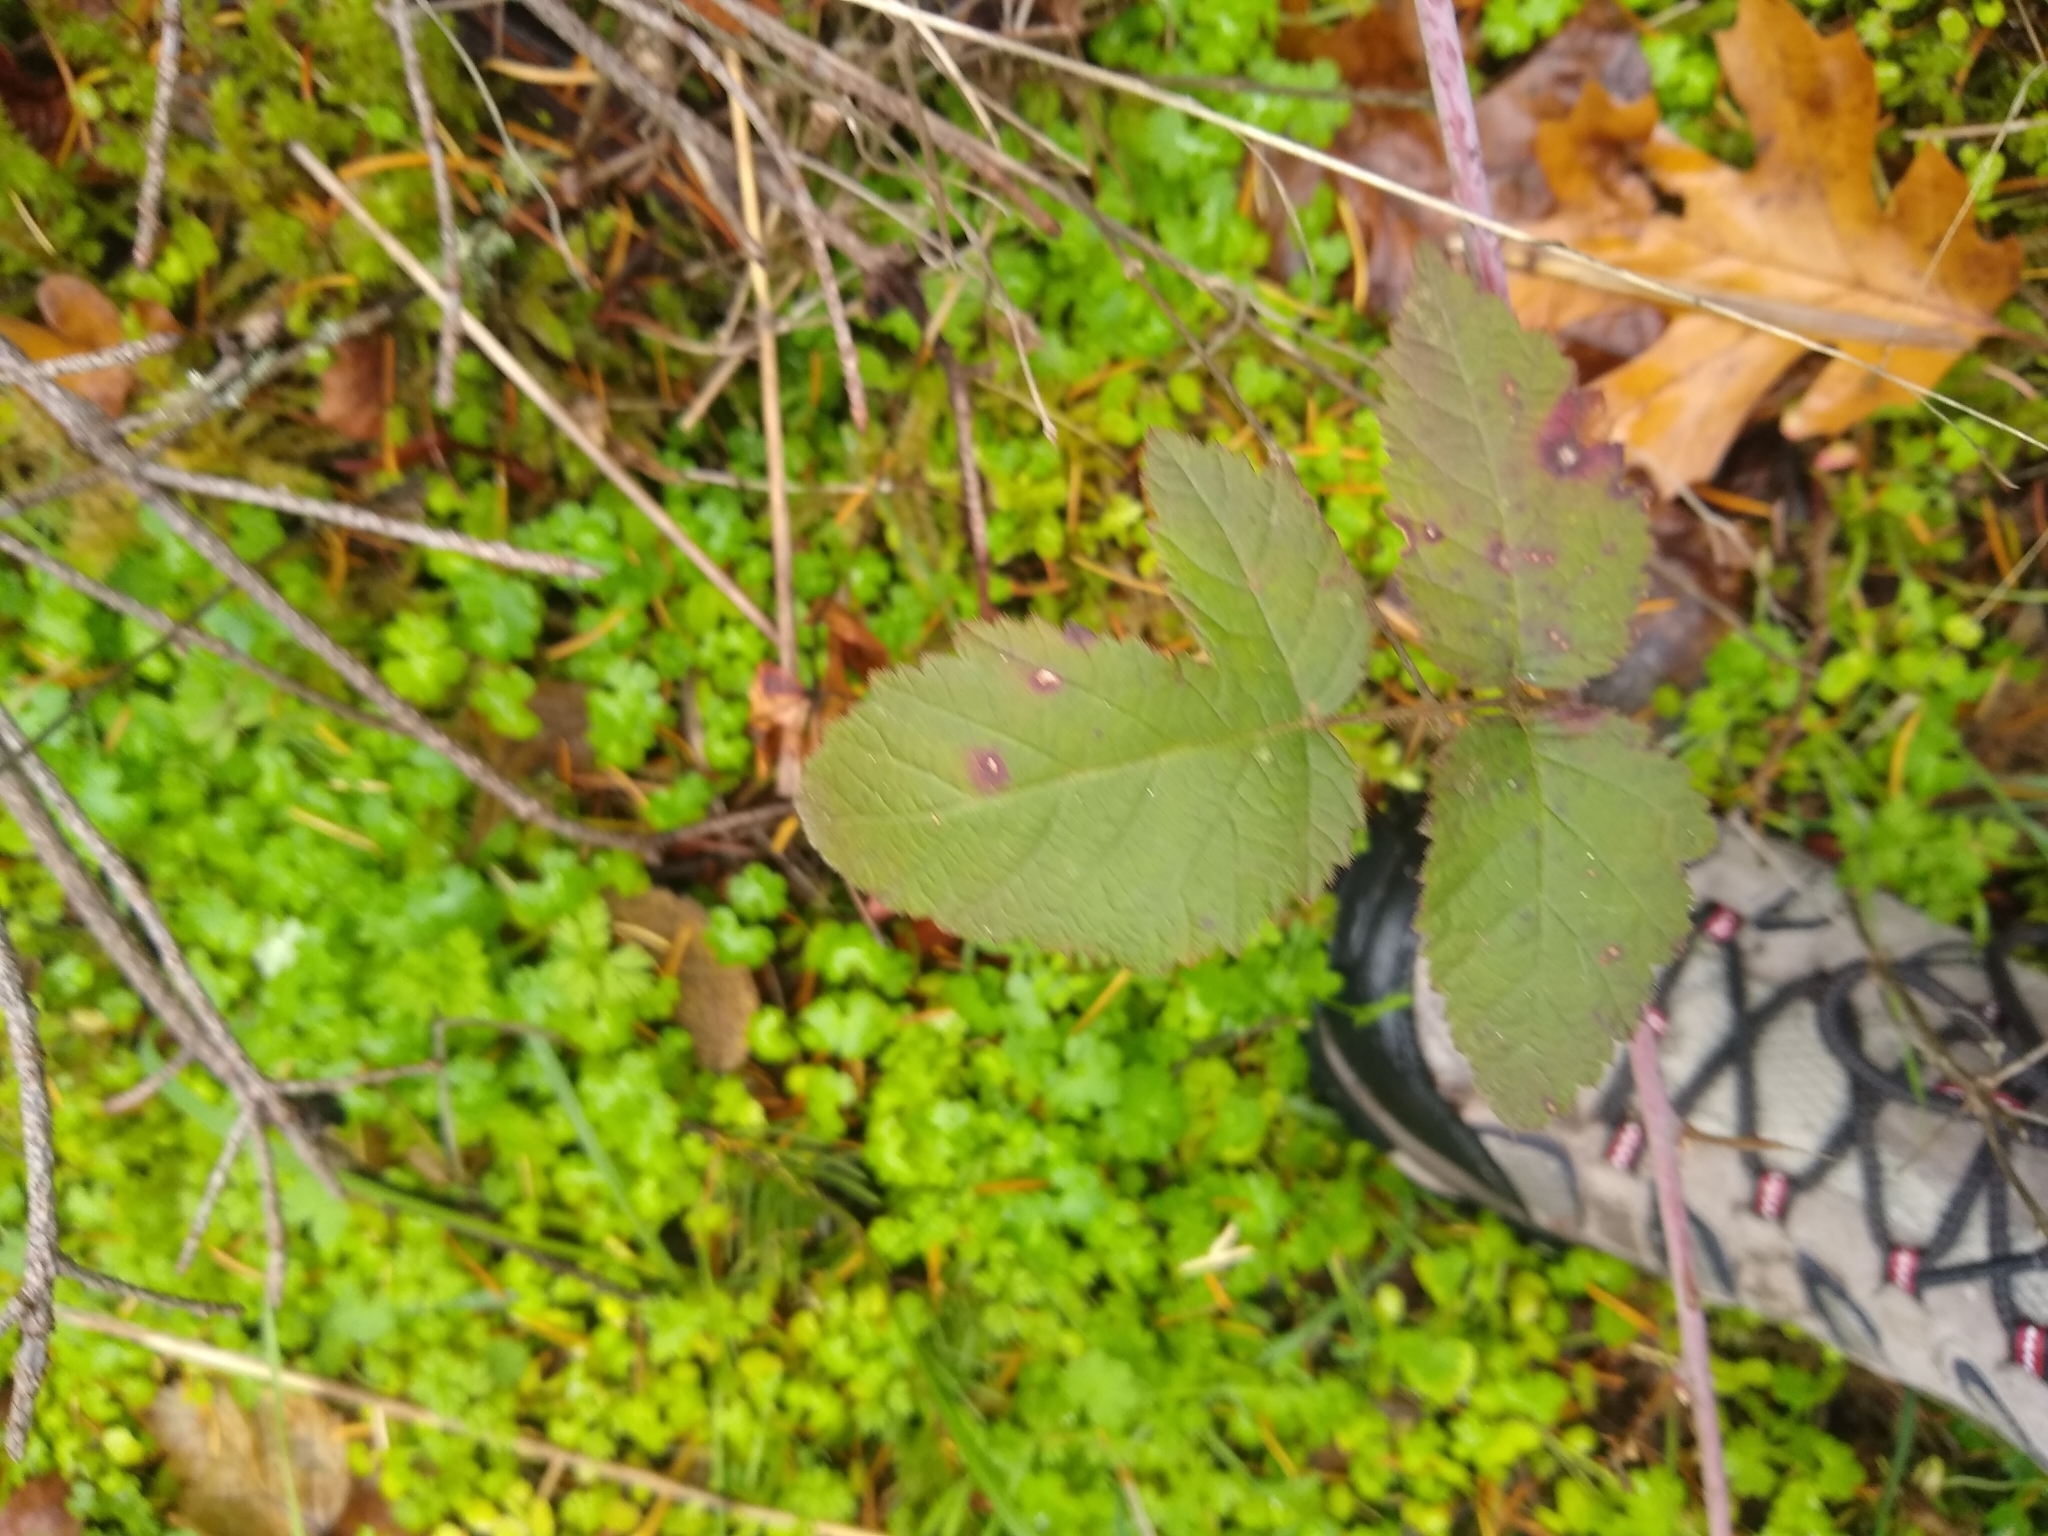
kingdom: Plantae
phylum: Tracheophyta
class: Magnoliopsida
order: Rosales
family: Rosaceae
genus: Rubus
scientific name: Rubus ursinus
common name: Pacific blackberry
